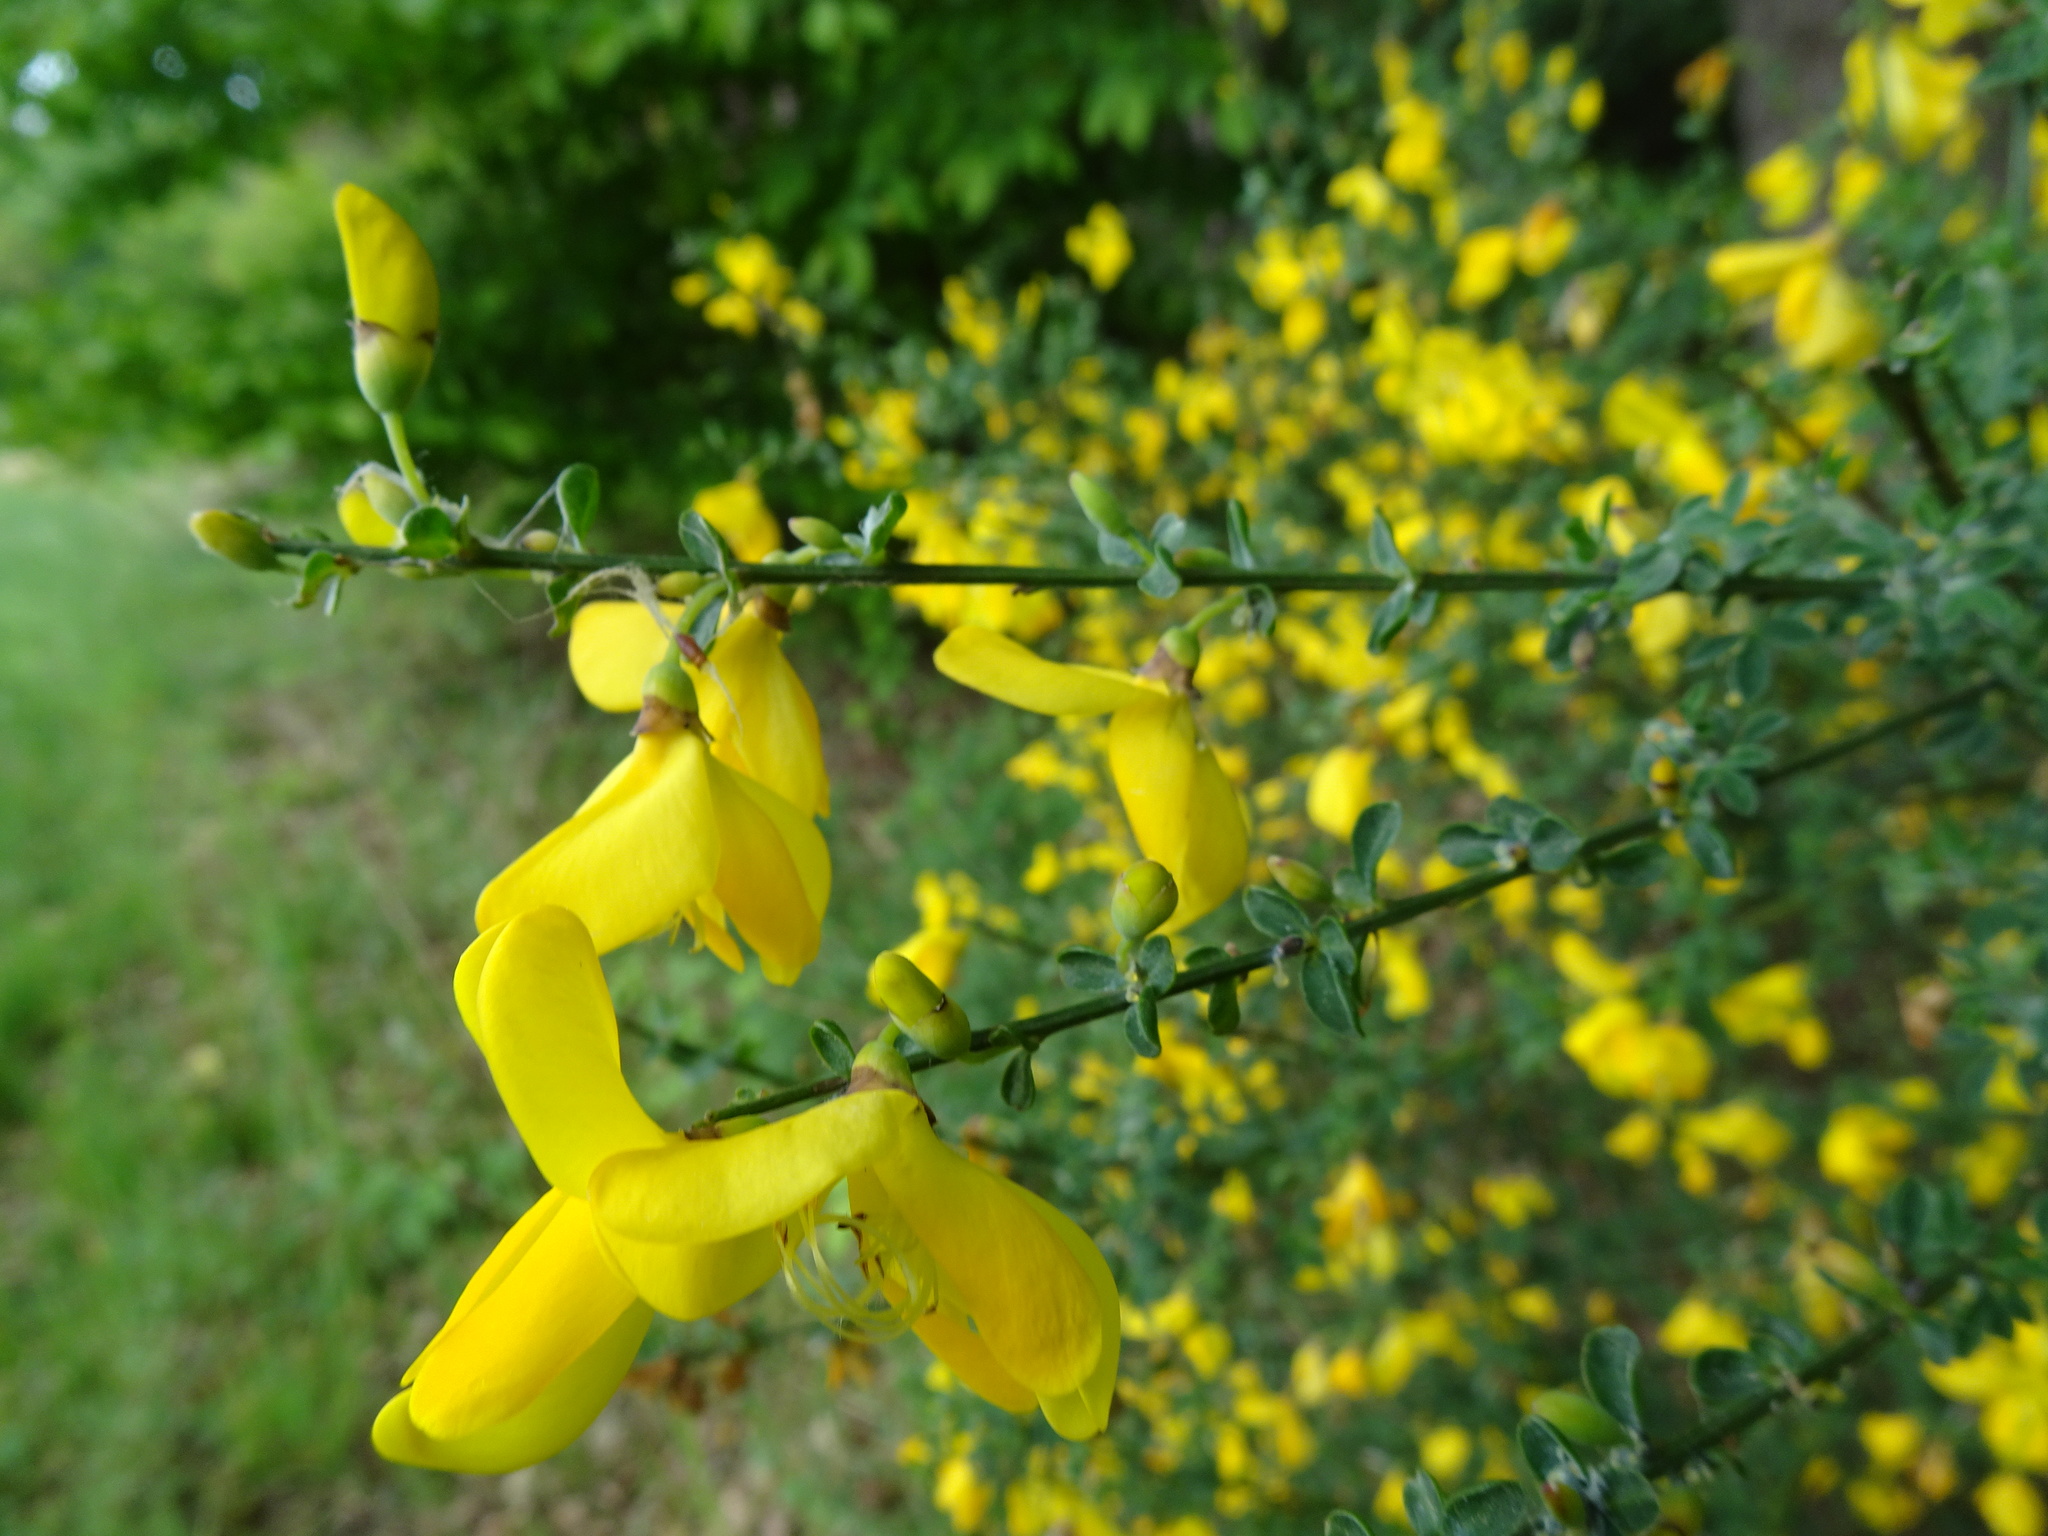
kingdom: Plantae
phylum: Tracheophyta
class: Magnoliopsida
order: Fabales
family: Fabaceae
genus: Cytisus
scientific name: Cytisus scoparius
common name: Scotch broom
